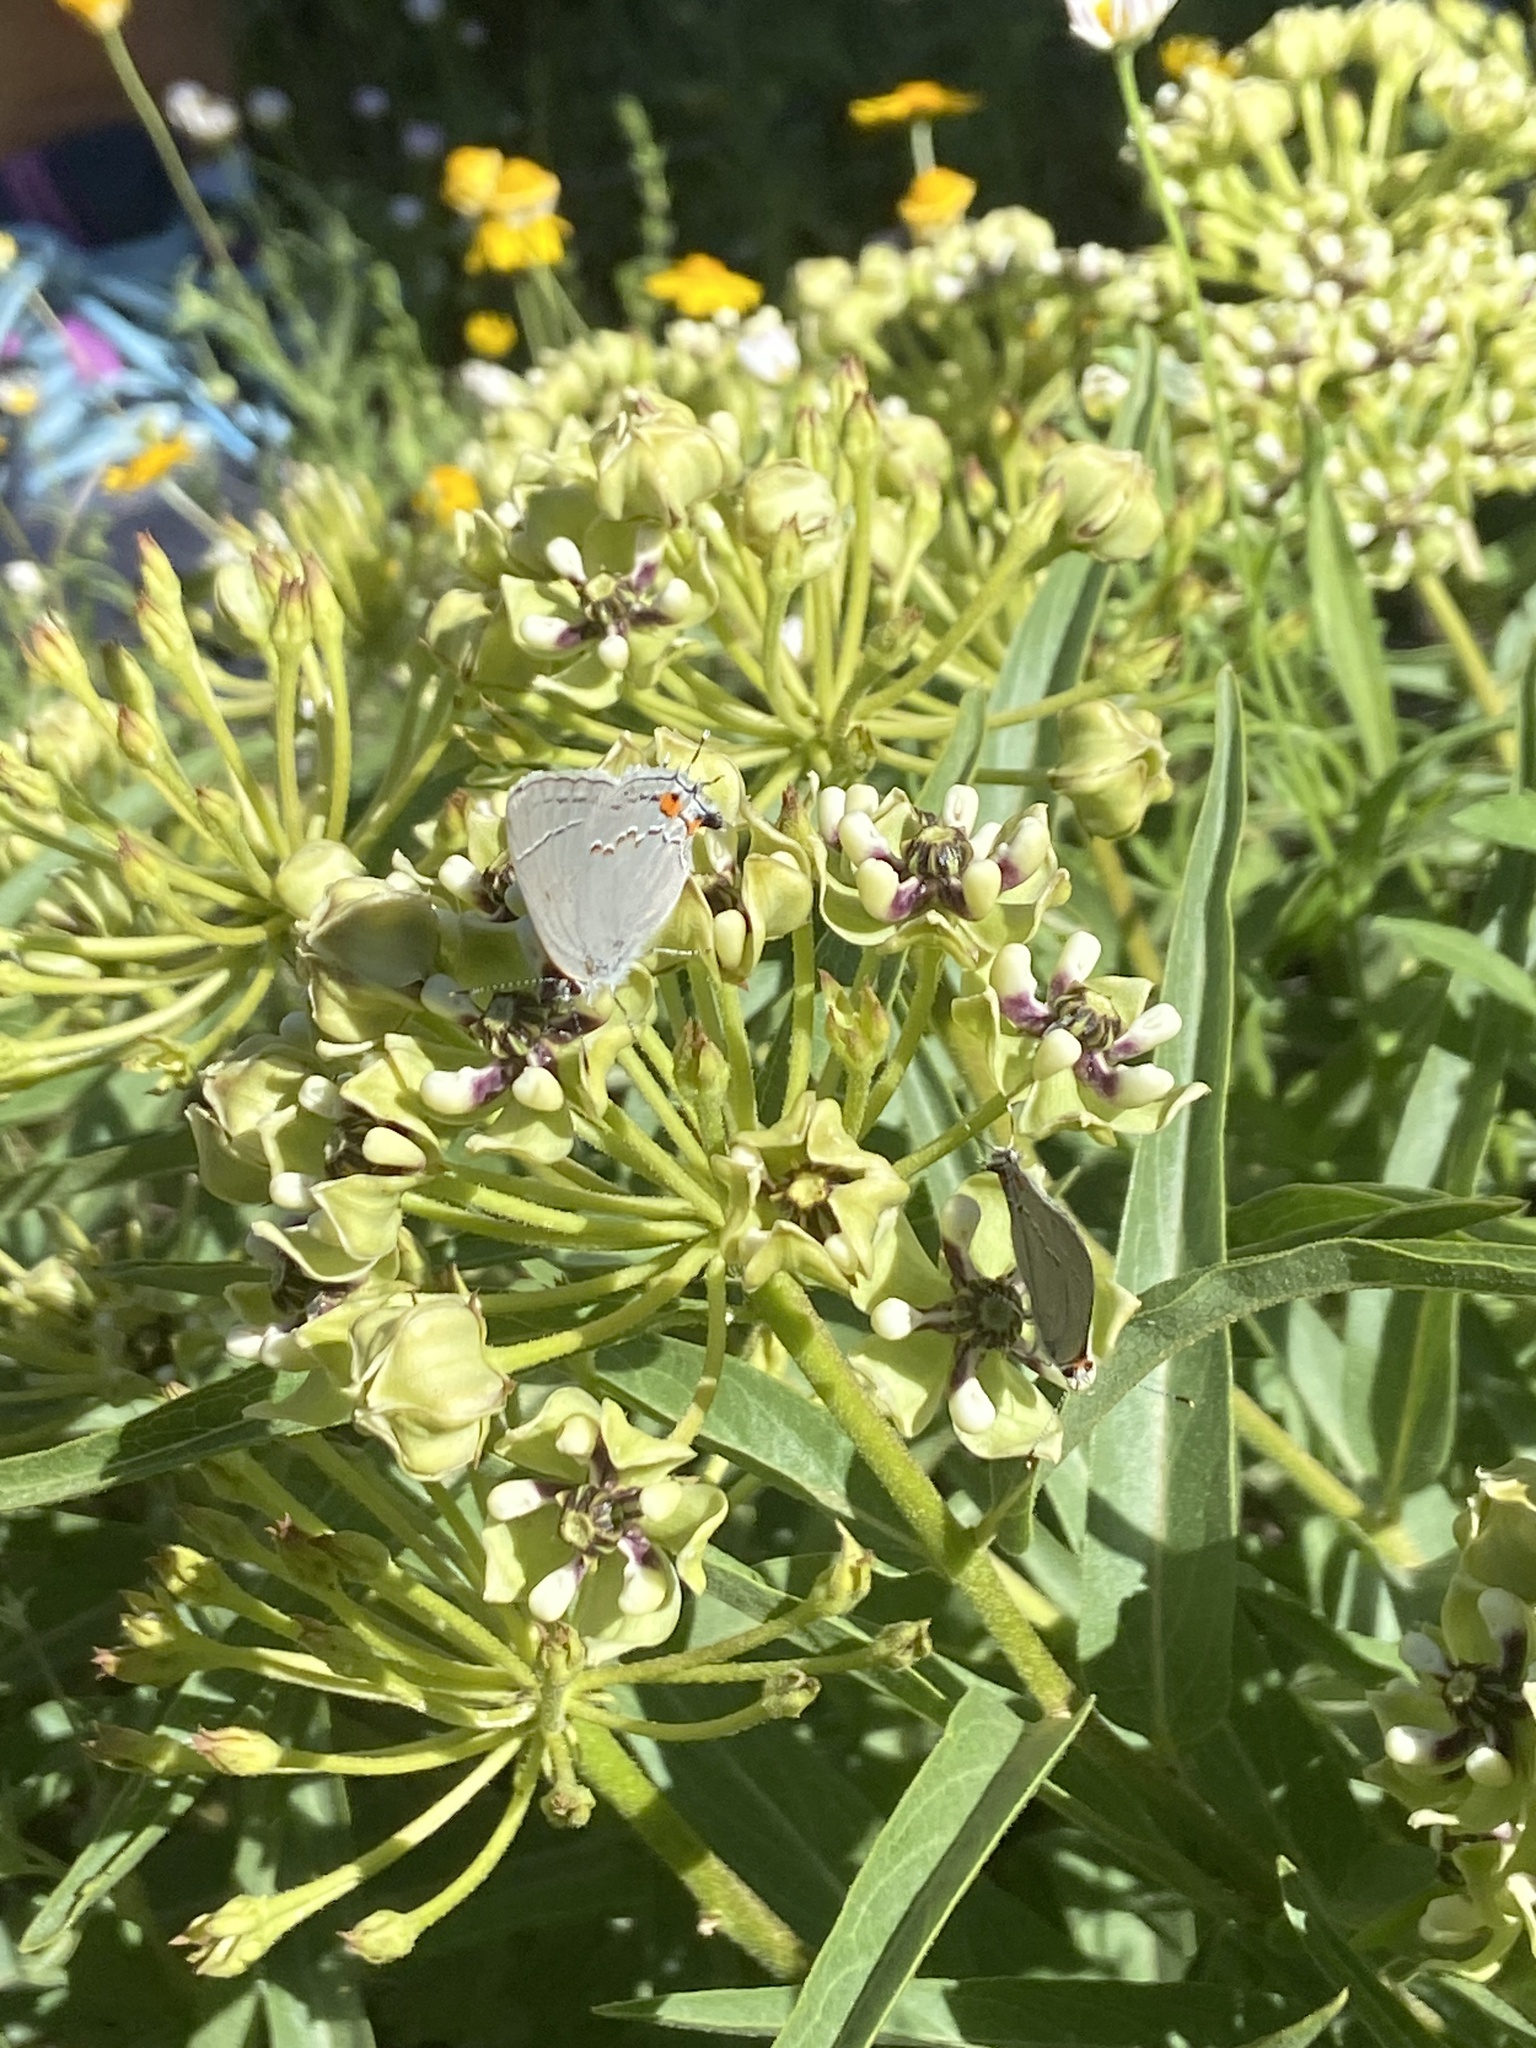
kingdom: Animalia
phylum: Arthropoda
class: Insecta
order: Lepidoptera
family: Lycaenidae
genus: Strymon
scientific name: Strymon melinus
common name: Gray hairstreak
